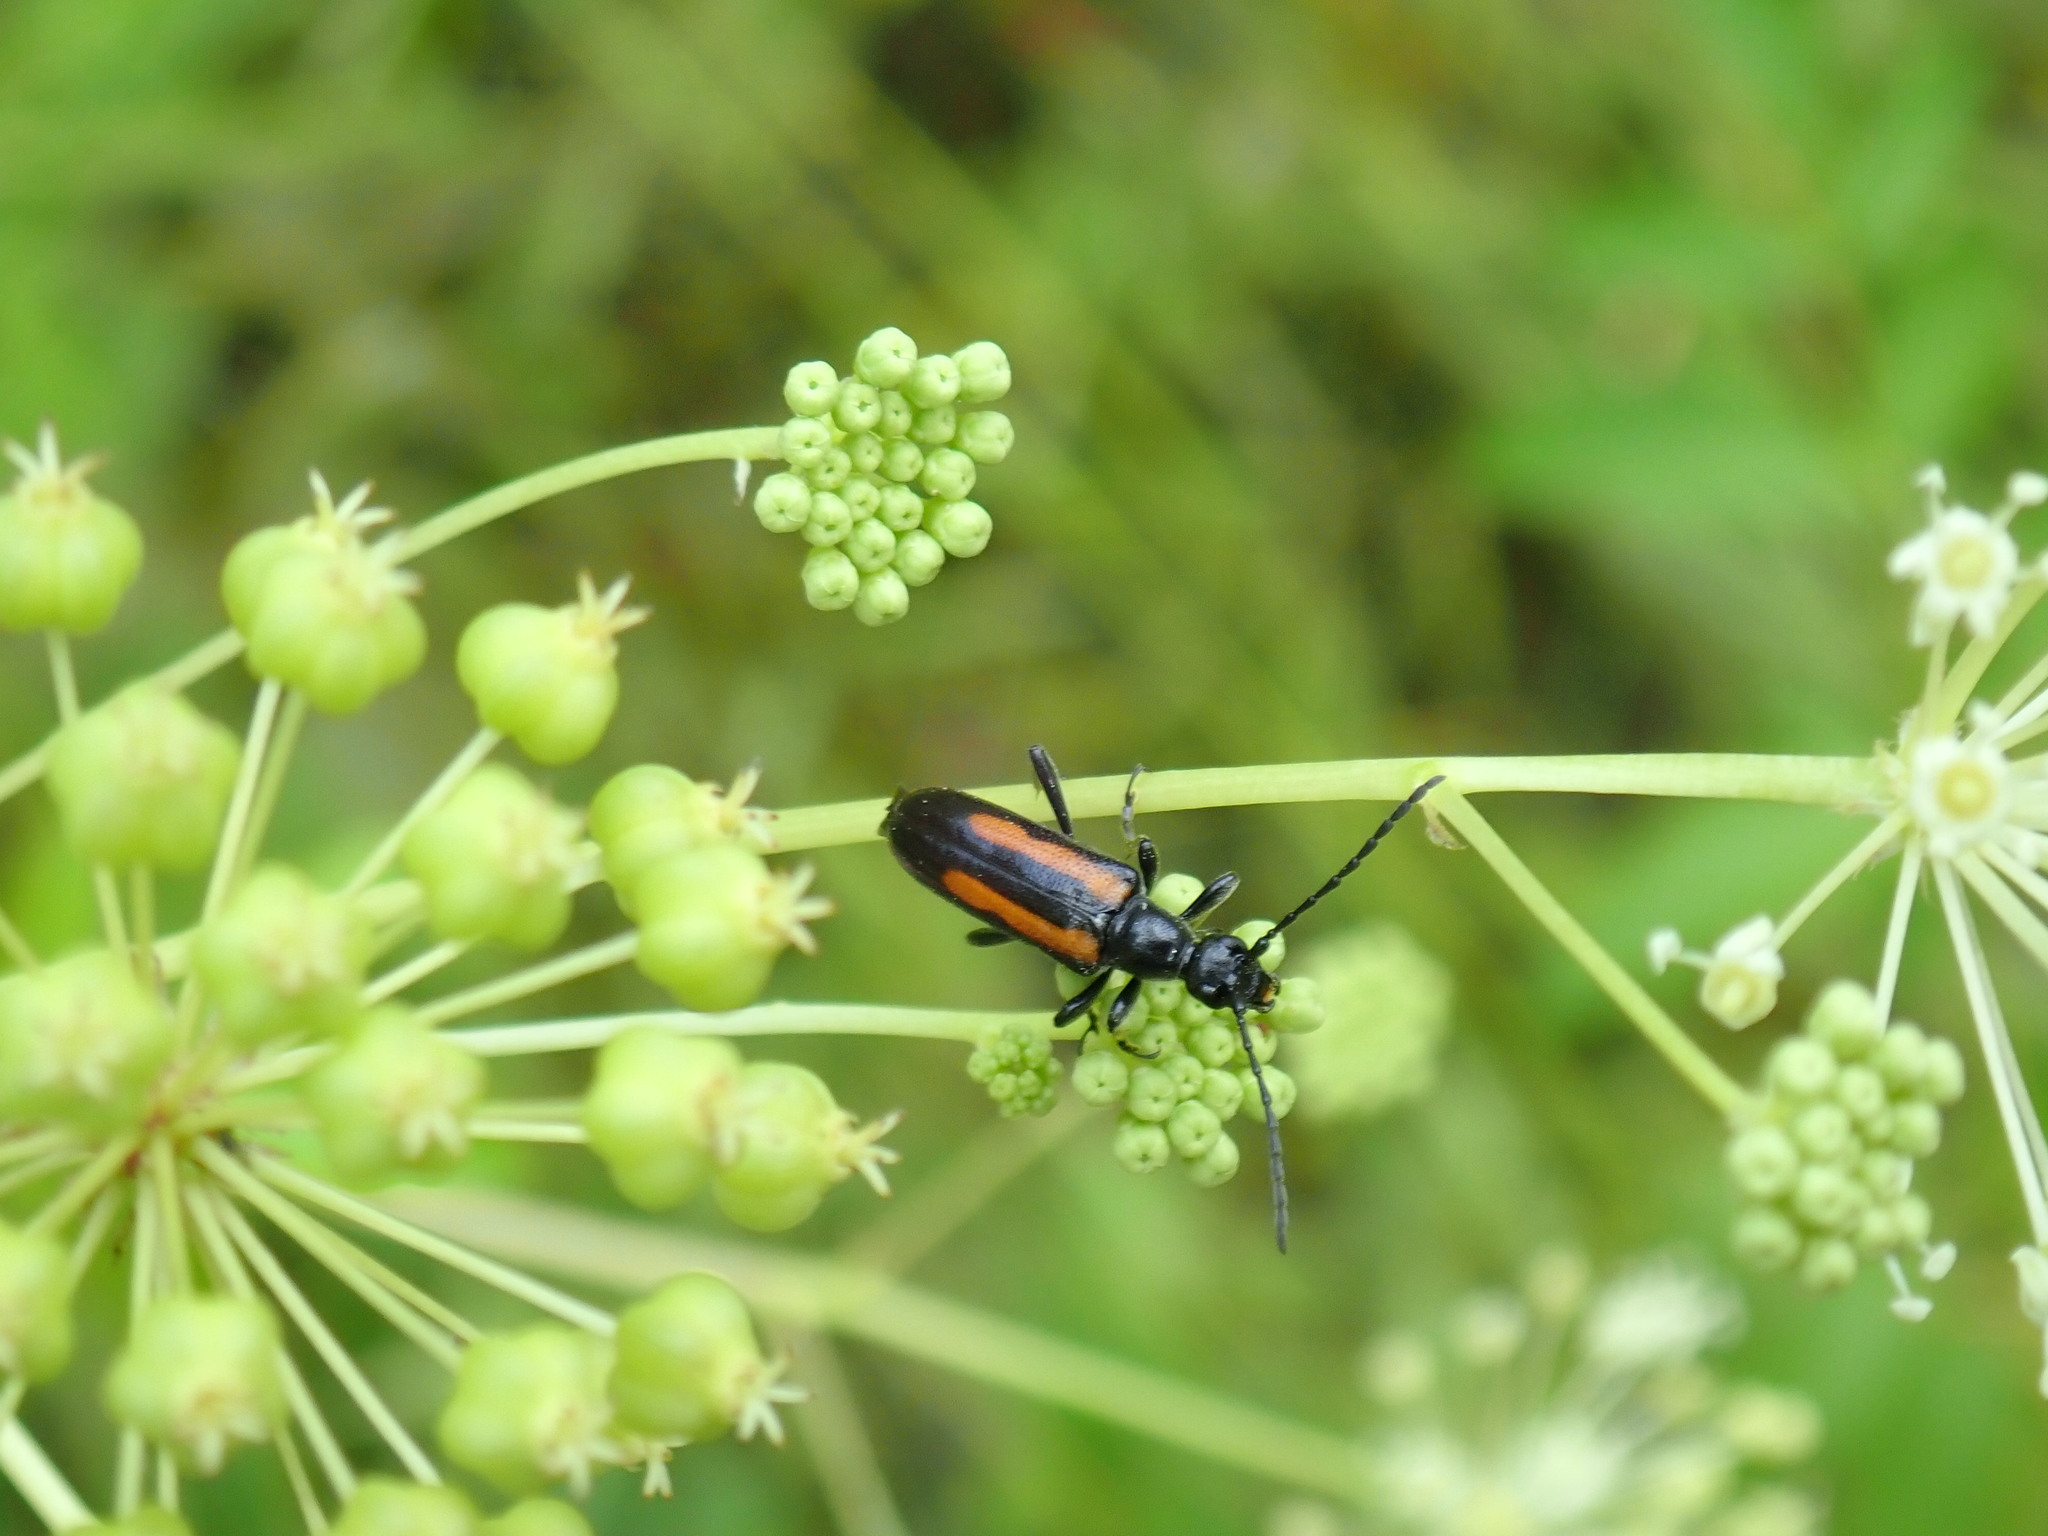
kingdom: Animalia
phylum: Arthropoda
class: Insecta
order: Coleoptera
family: Cerambycidae
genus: Strangalepta
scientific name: Strangalepta abbreviata
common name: Strangalepta flower longhorn beetle
